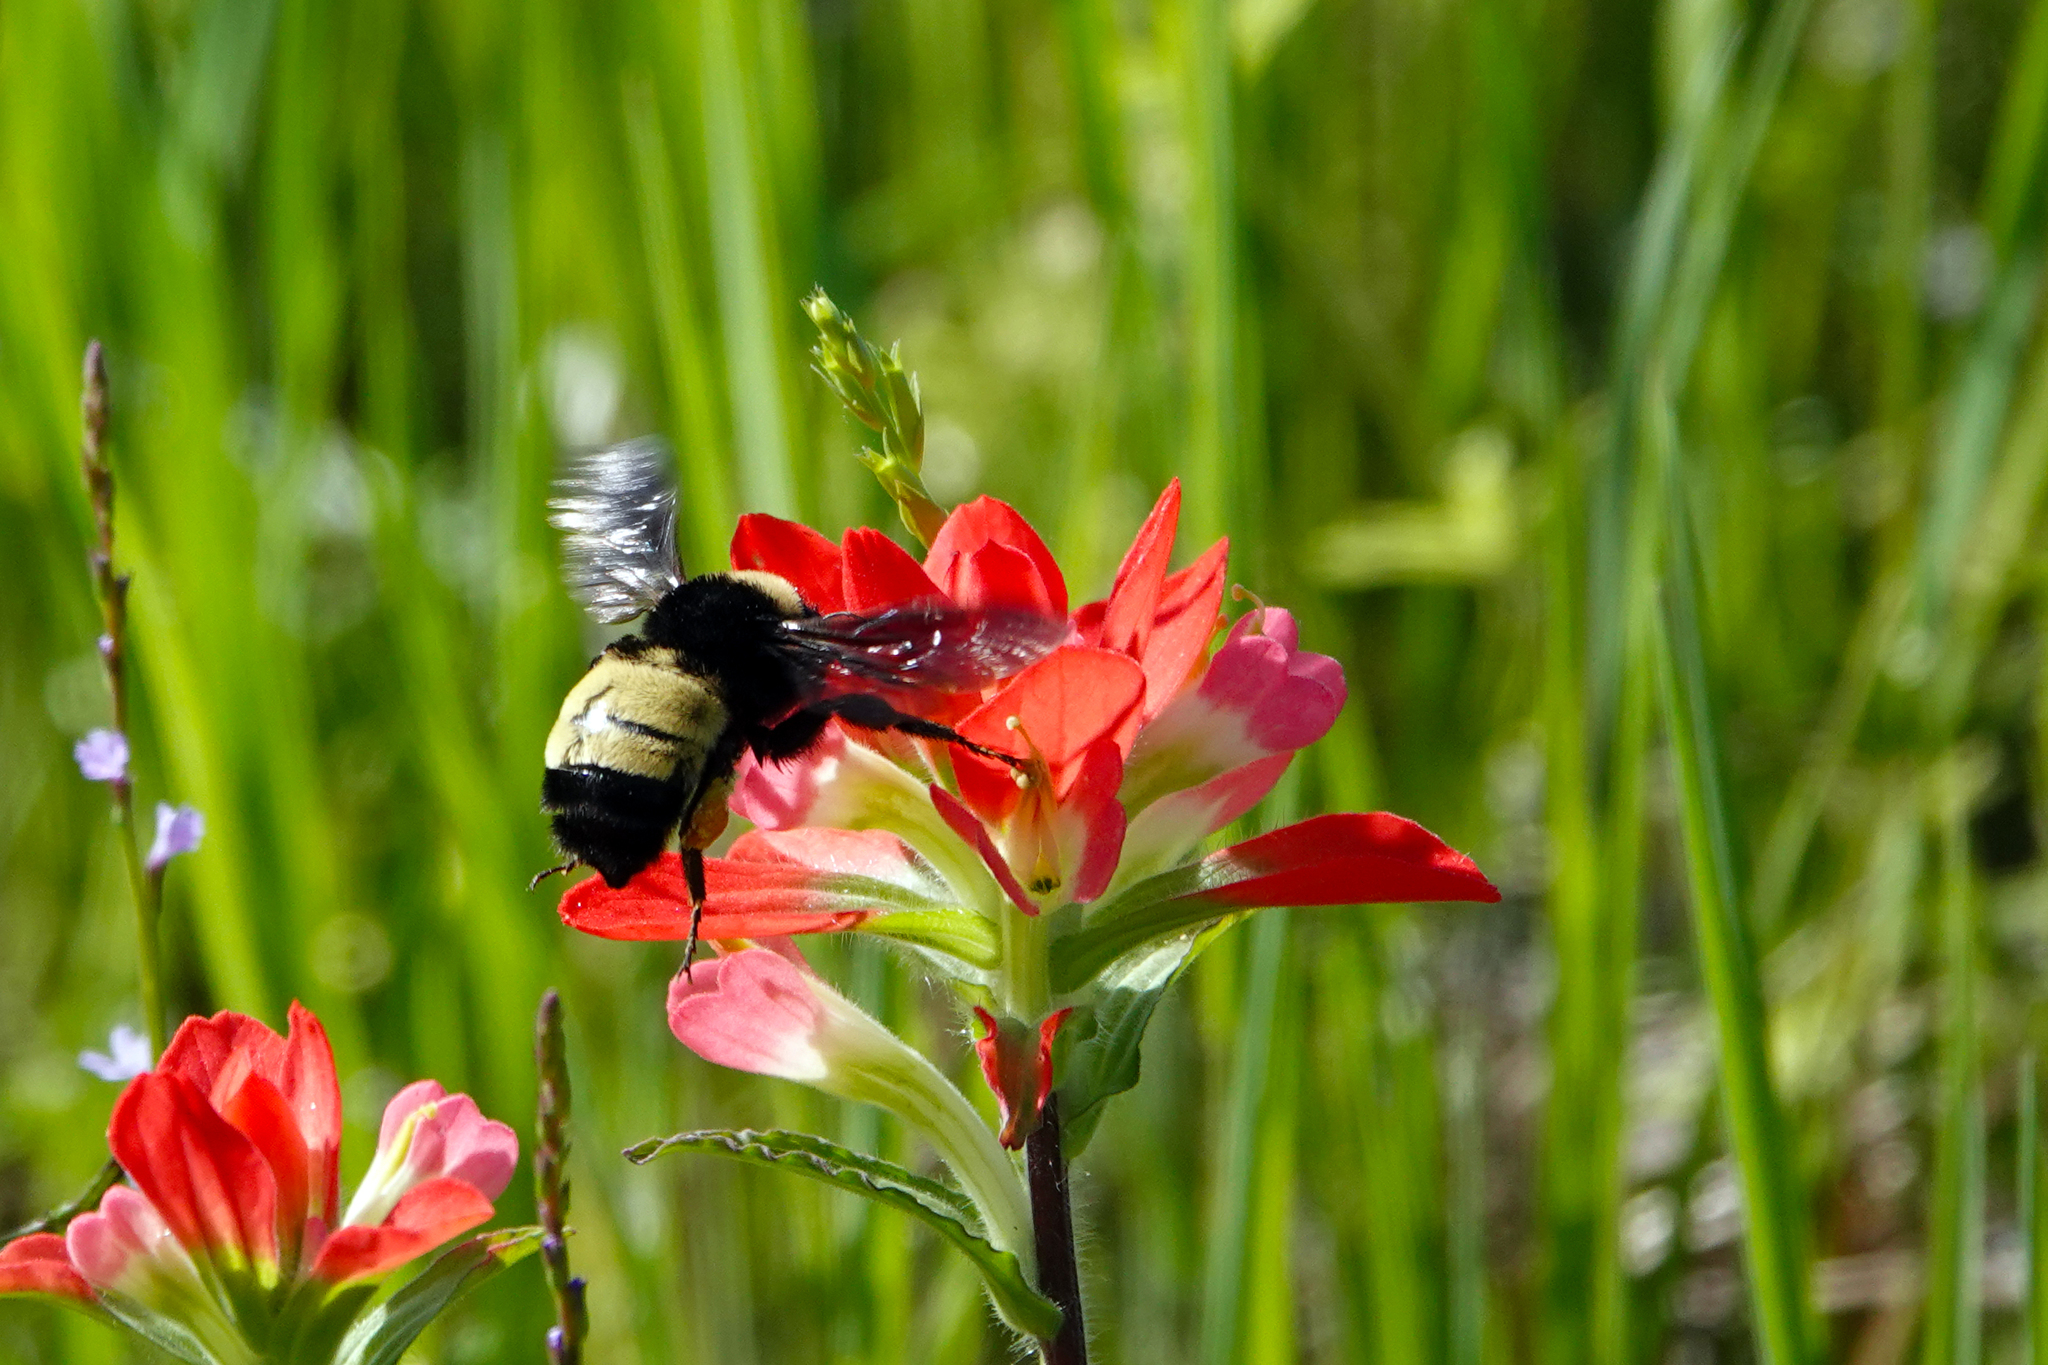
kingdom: Animalia
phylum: Arthropoda
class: Insecta
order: Hymenoptera
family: Apidae
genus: Bombus
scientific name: Bombus pensylvanicus
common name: Bumble bee
